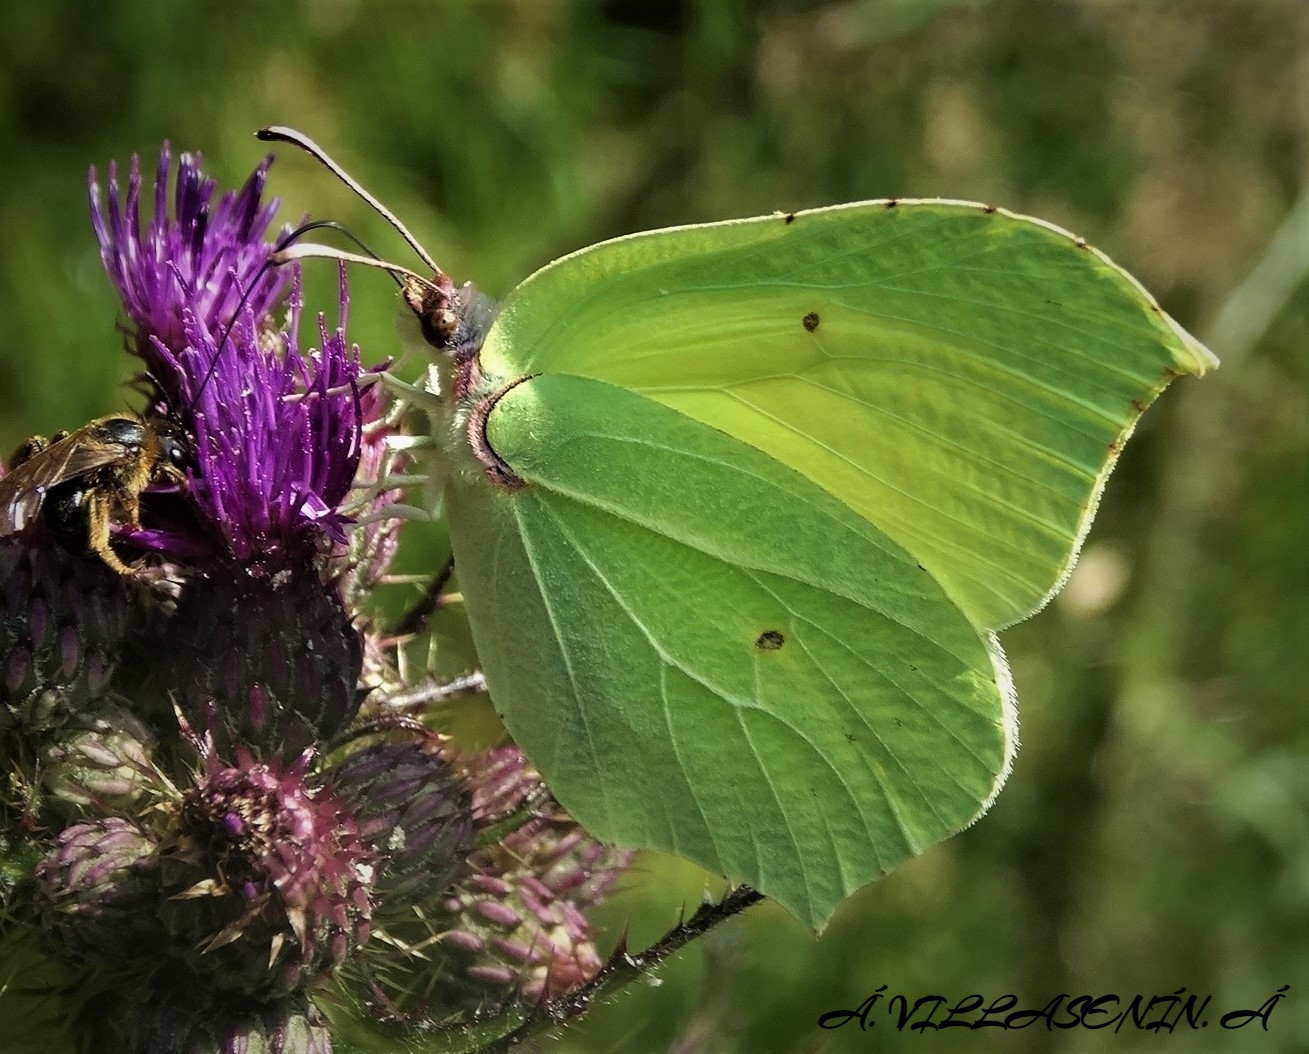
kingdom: Animalia
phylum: Arthropoda
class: Insecta
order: Lepidoptera
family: Pieridae
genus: Gonepteryx
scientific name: Gonepteryx rhamni
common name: Brimstone
